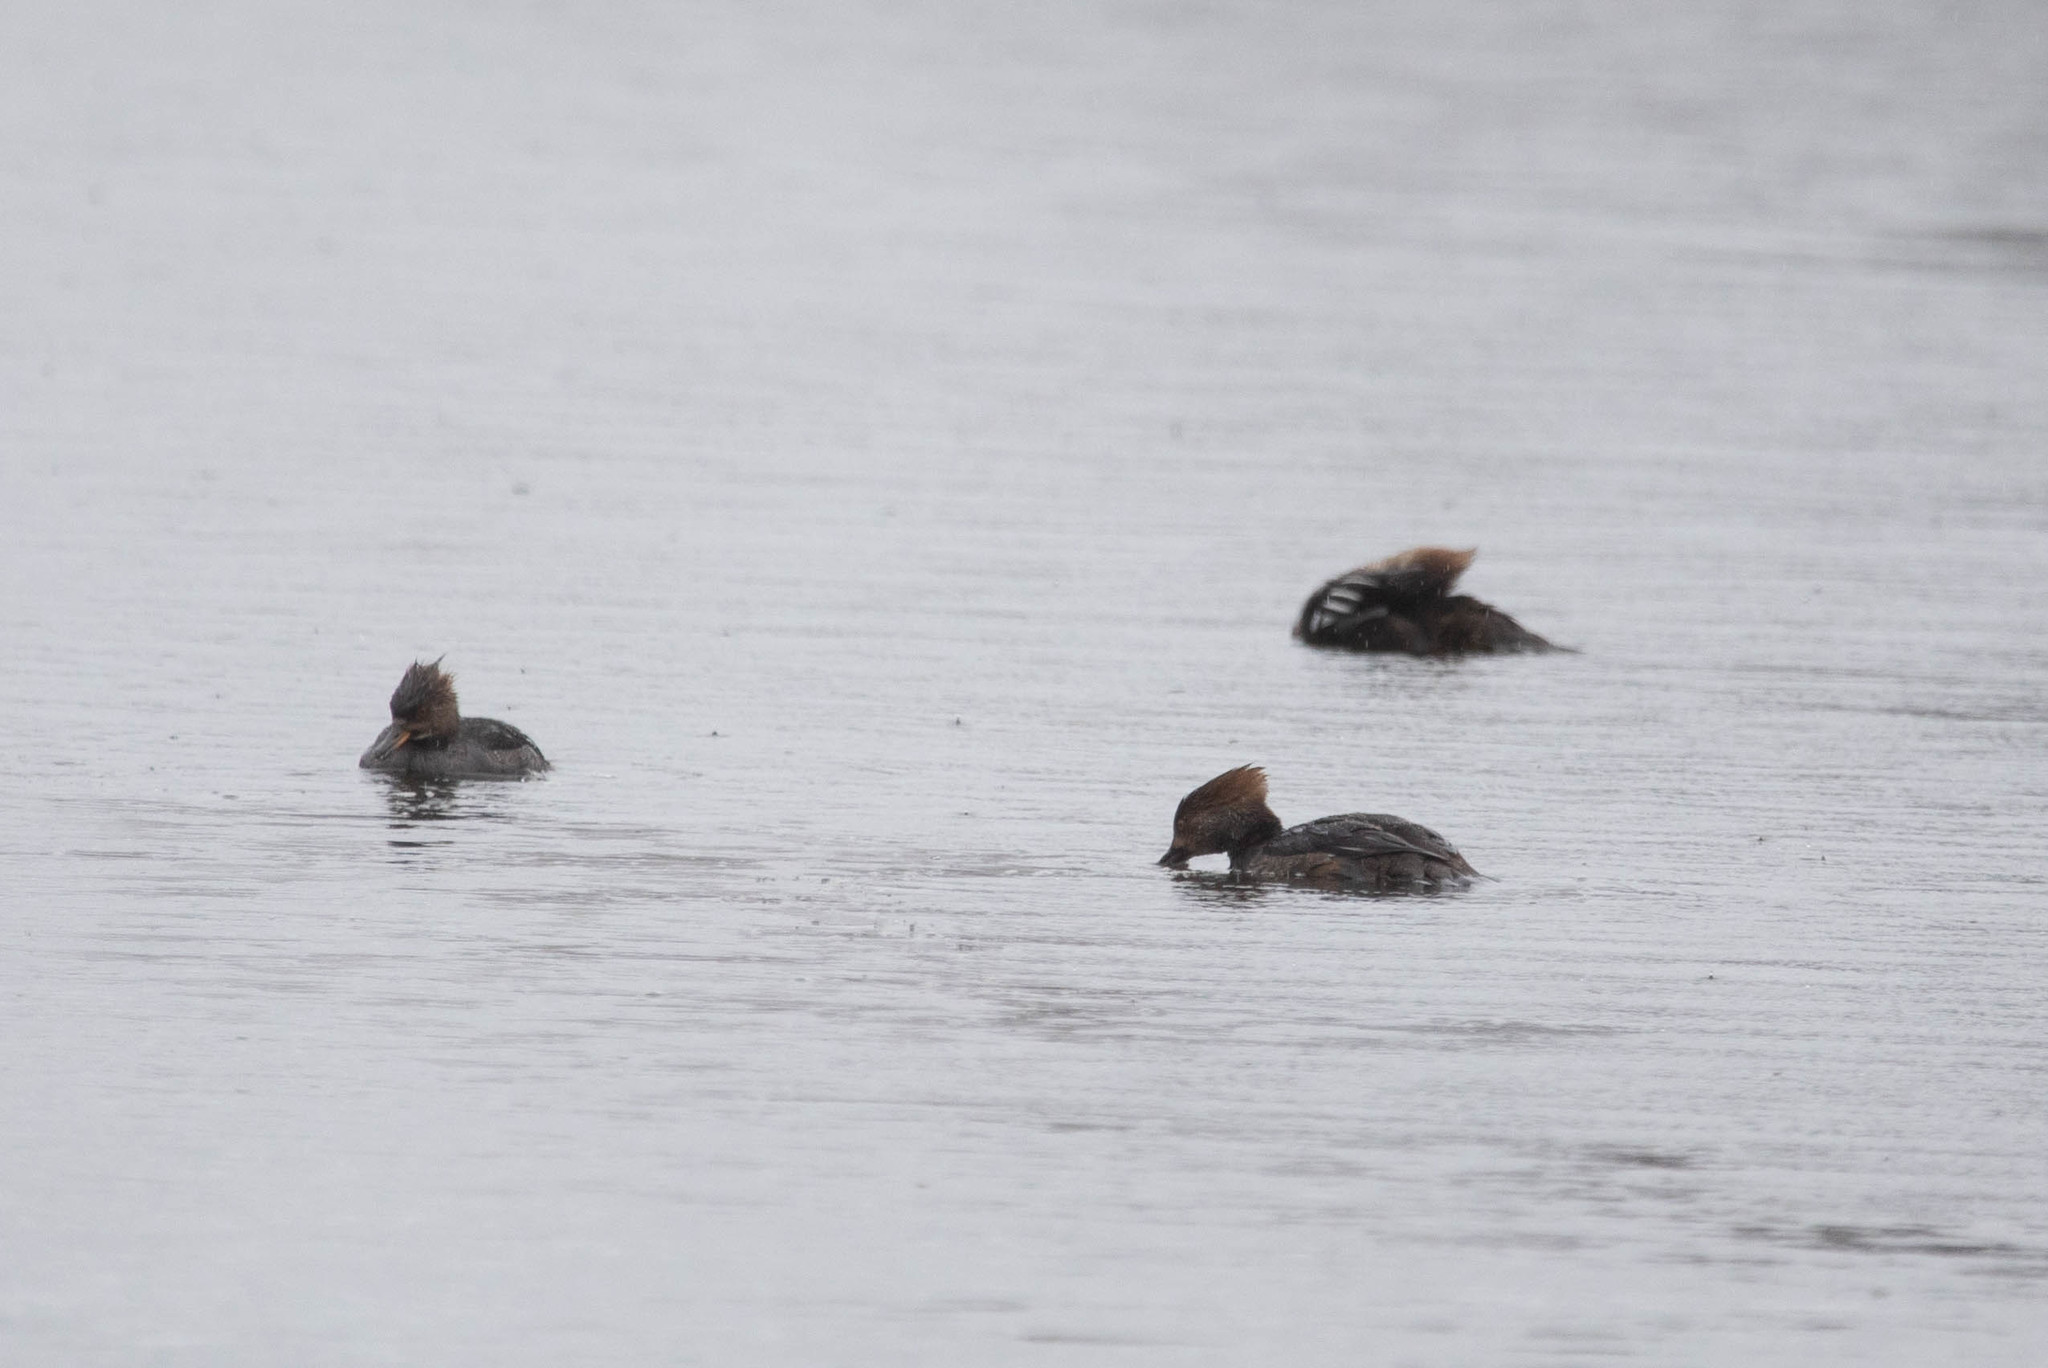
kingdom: Animalia
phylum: Chordata
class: Aves
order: Anseriformes
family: Anatidae
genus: Lophodytes
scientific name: Lophodytes cucullatus
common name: Hooded merganser
